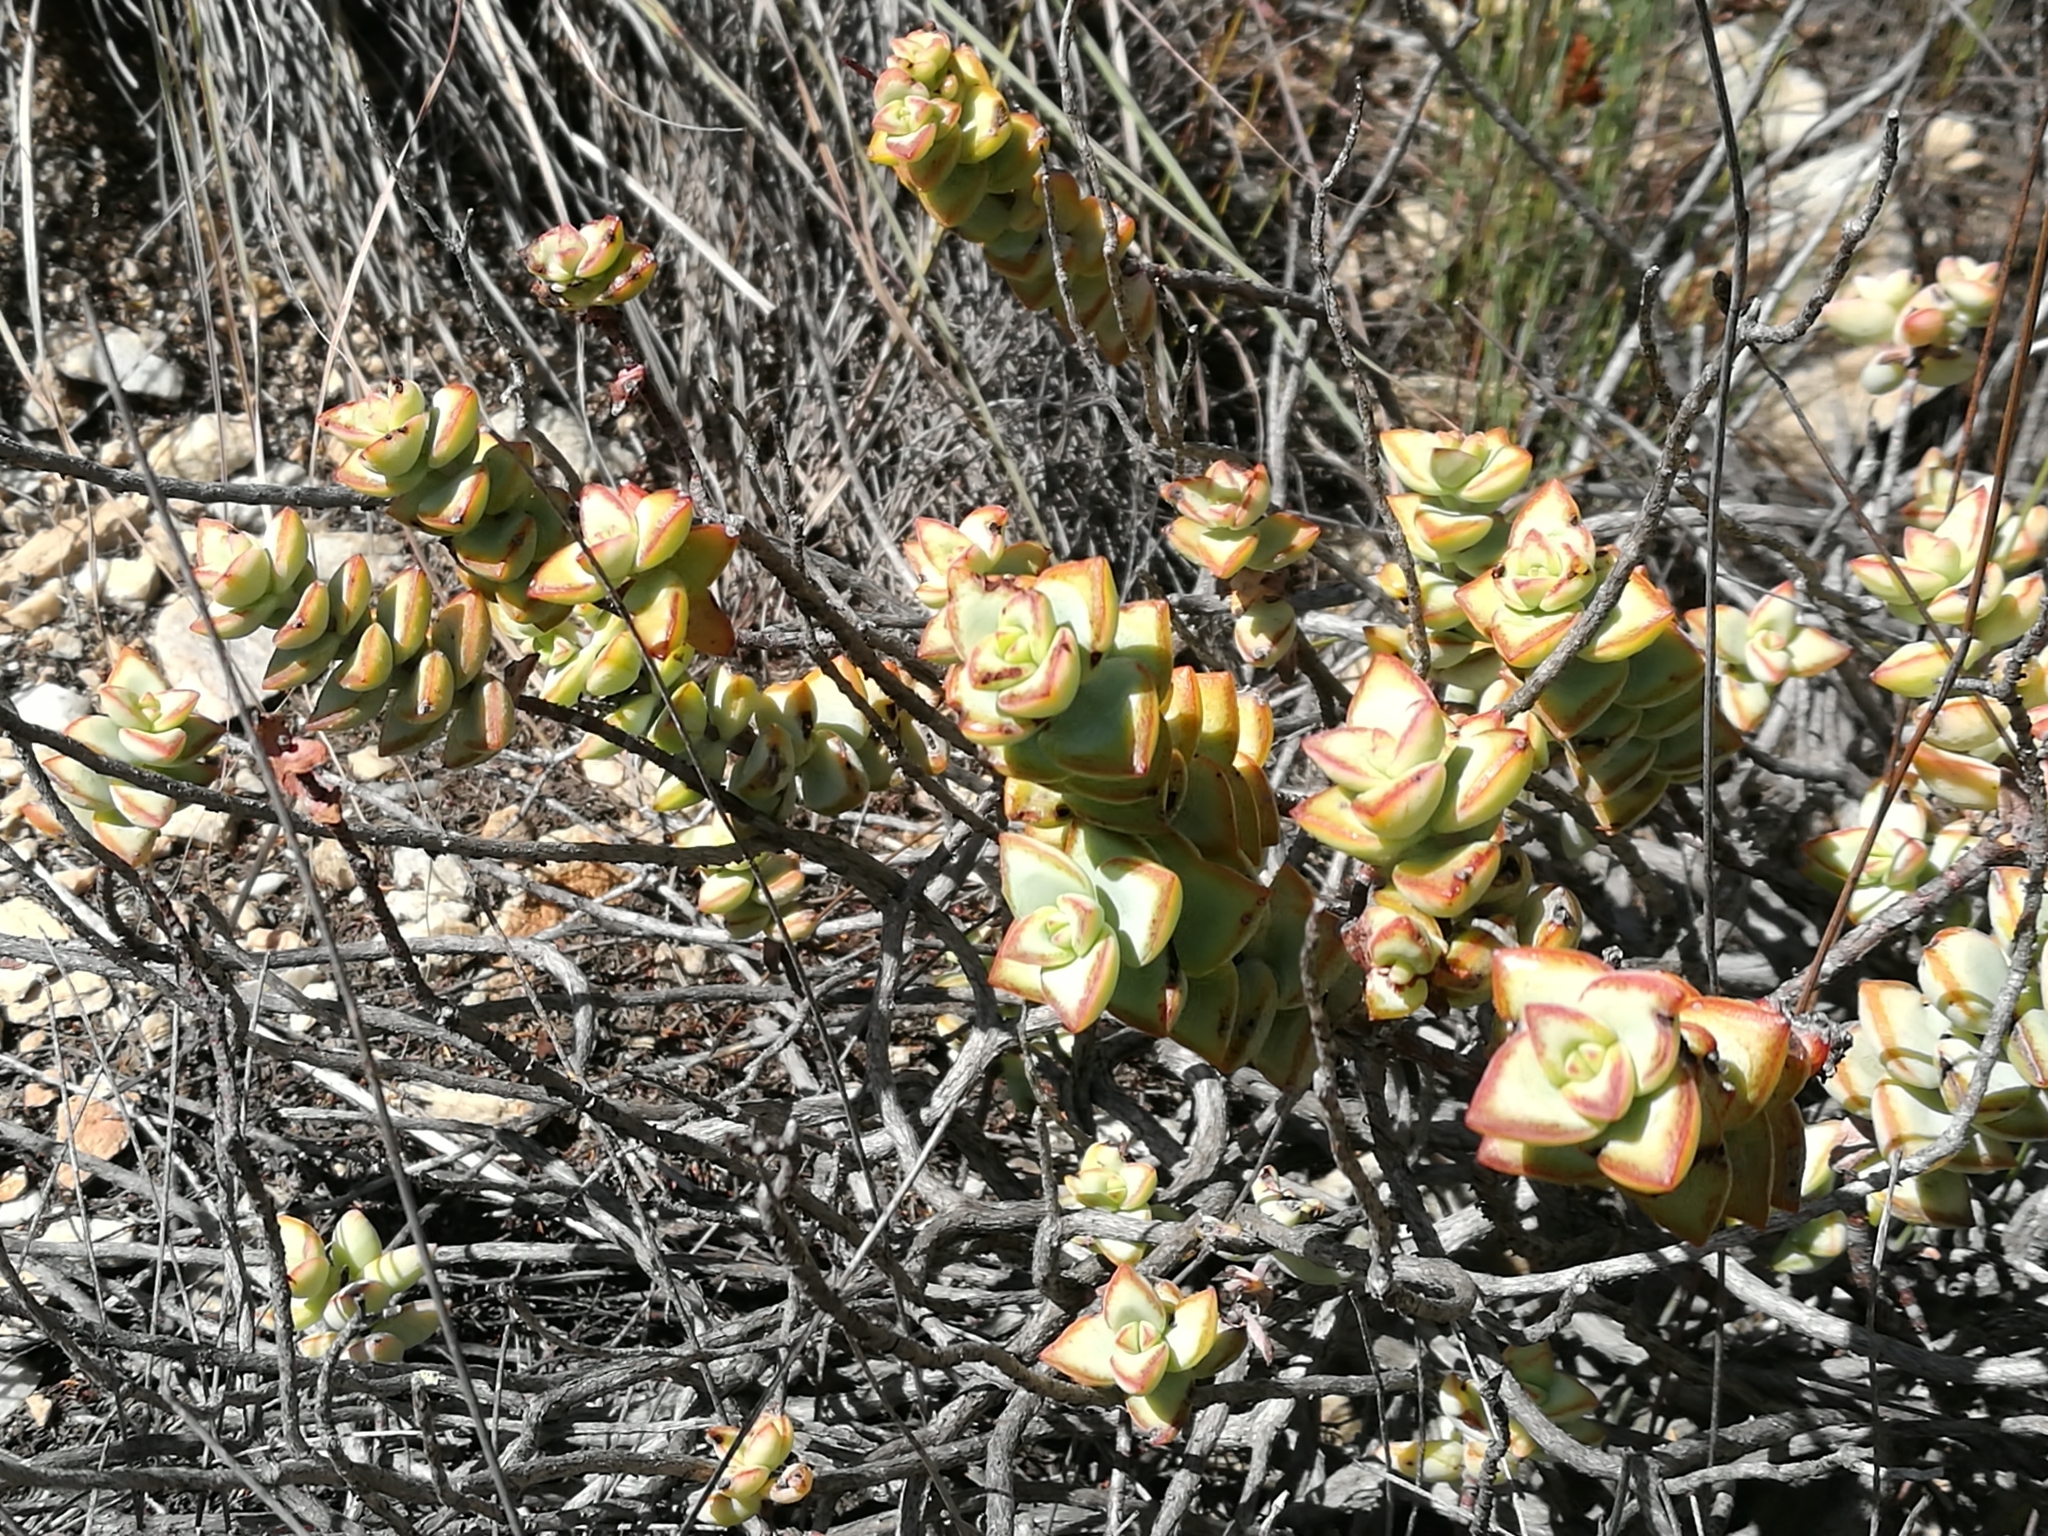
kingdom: Plantae
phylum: Tracheophyta
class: Magnoliopsida
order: Saxifragales
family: Crassulaceae
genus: Crassula
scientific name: Crassula rupestris
